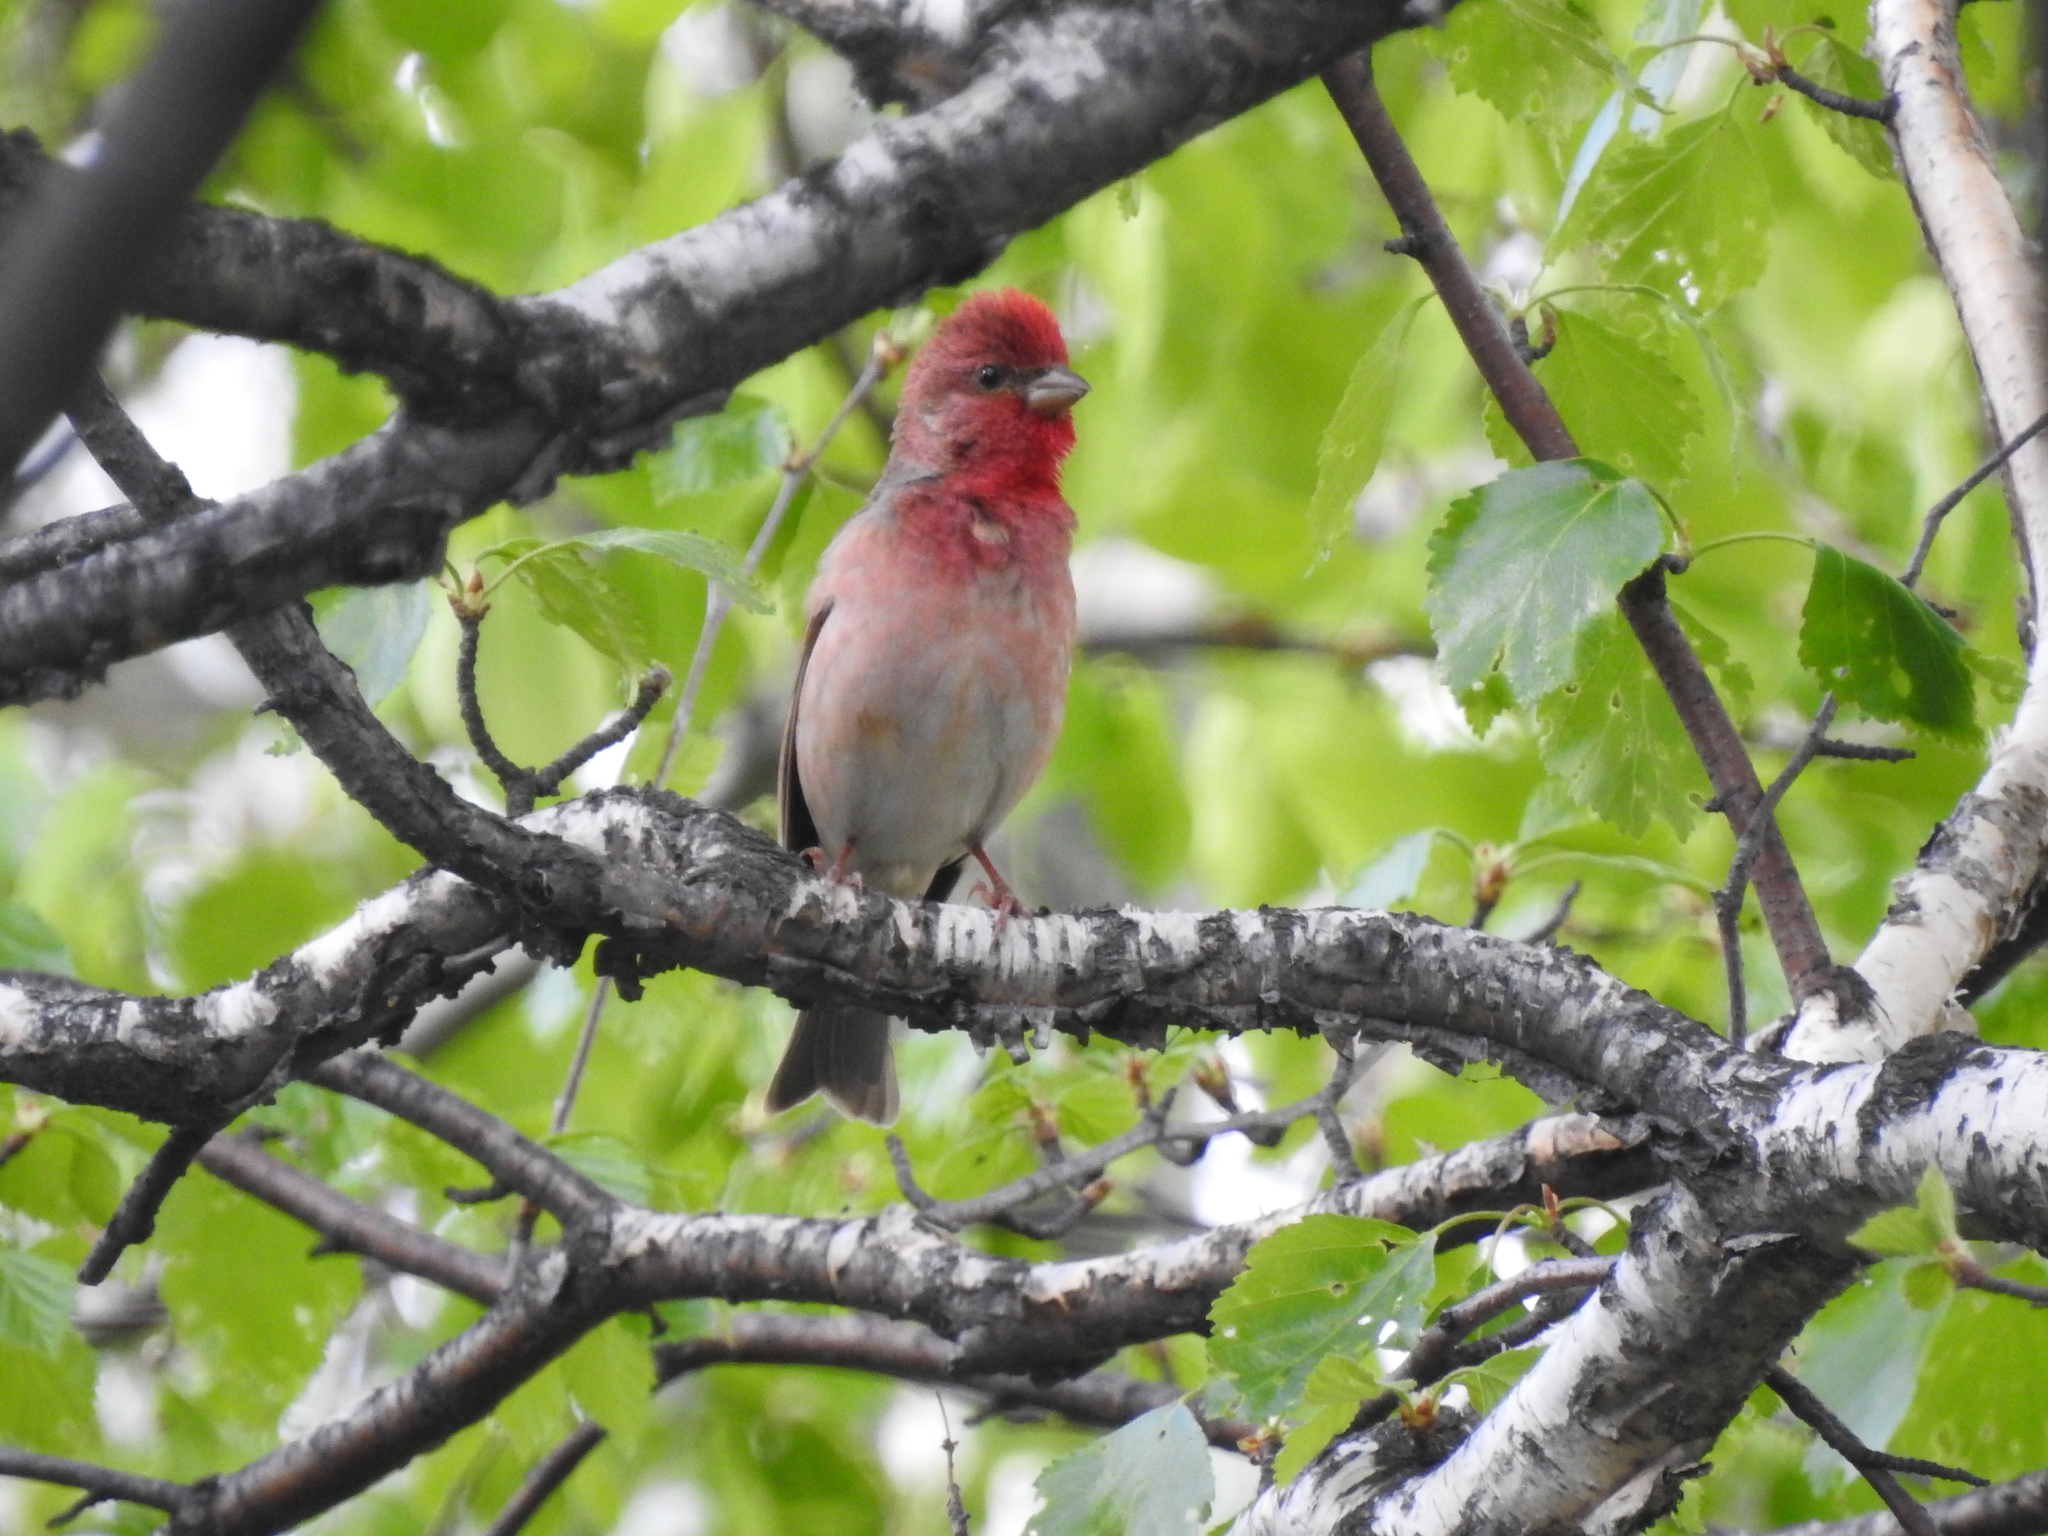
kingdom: Animalia
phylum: Chordata
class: Aves
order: Passeriformes
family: Fringillidae
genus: Carpodacus
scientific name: Carpodacus erythrinus
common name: Common rosefinch
